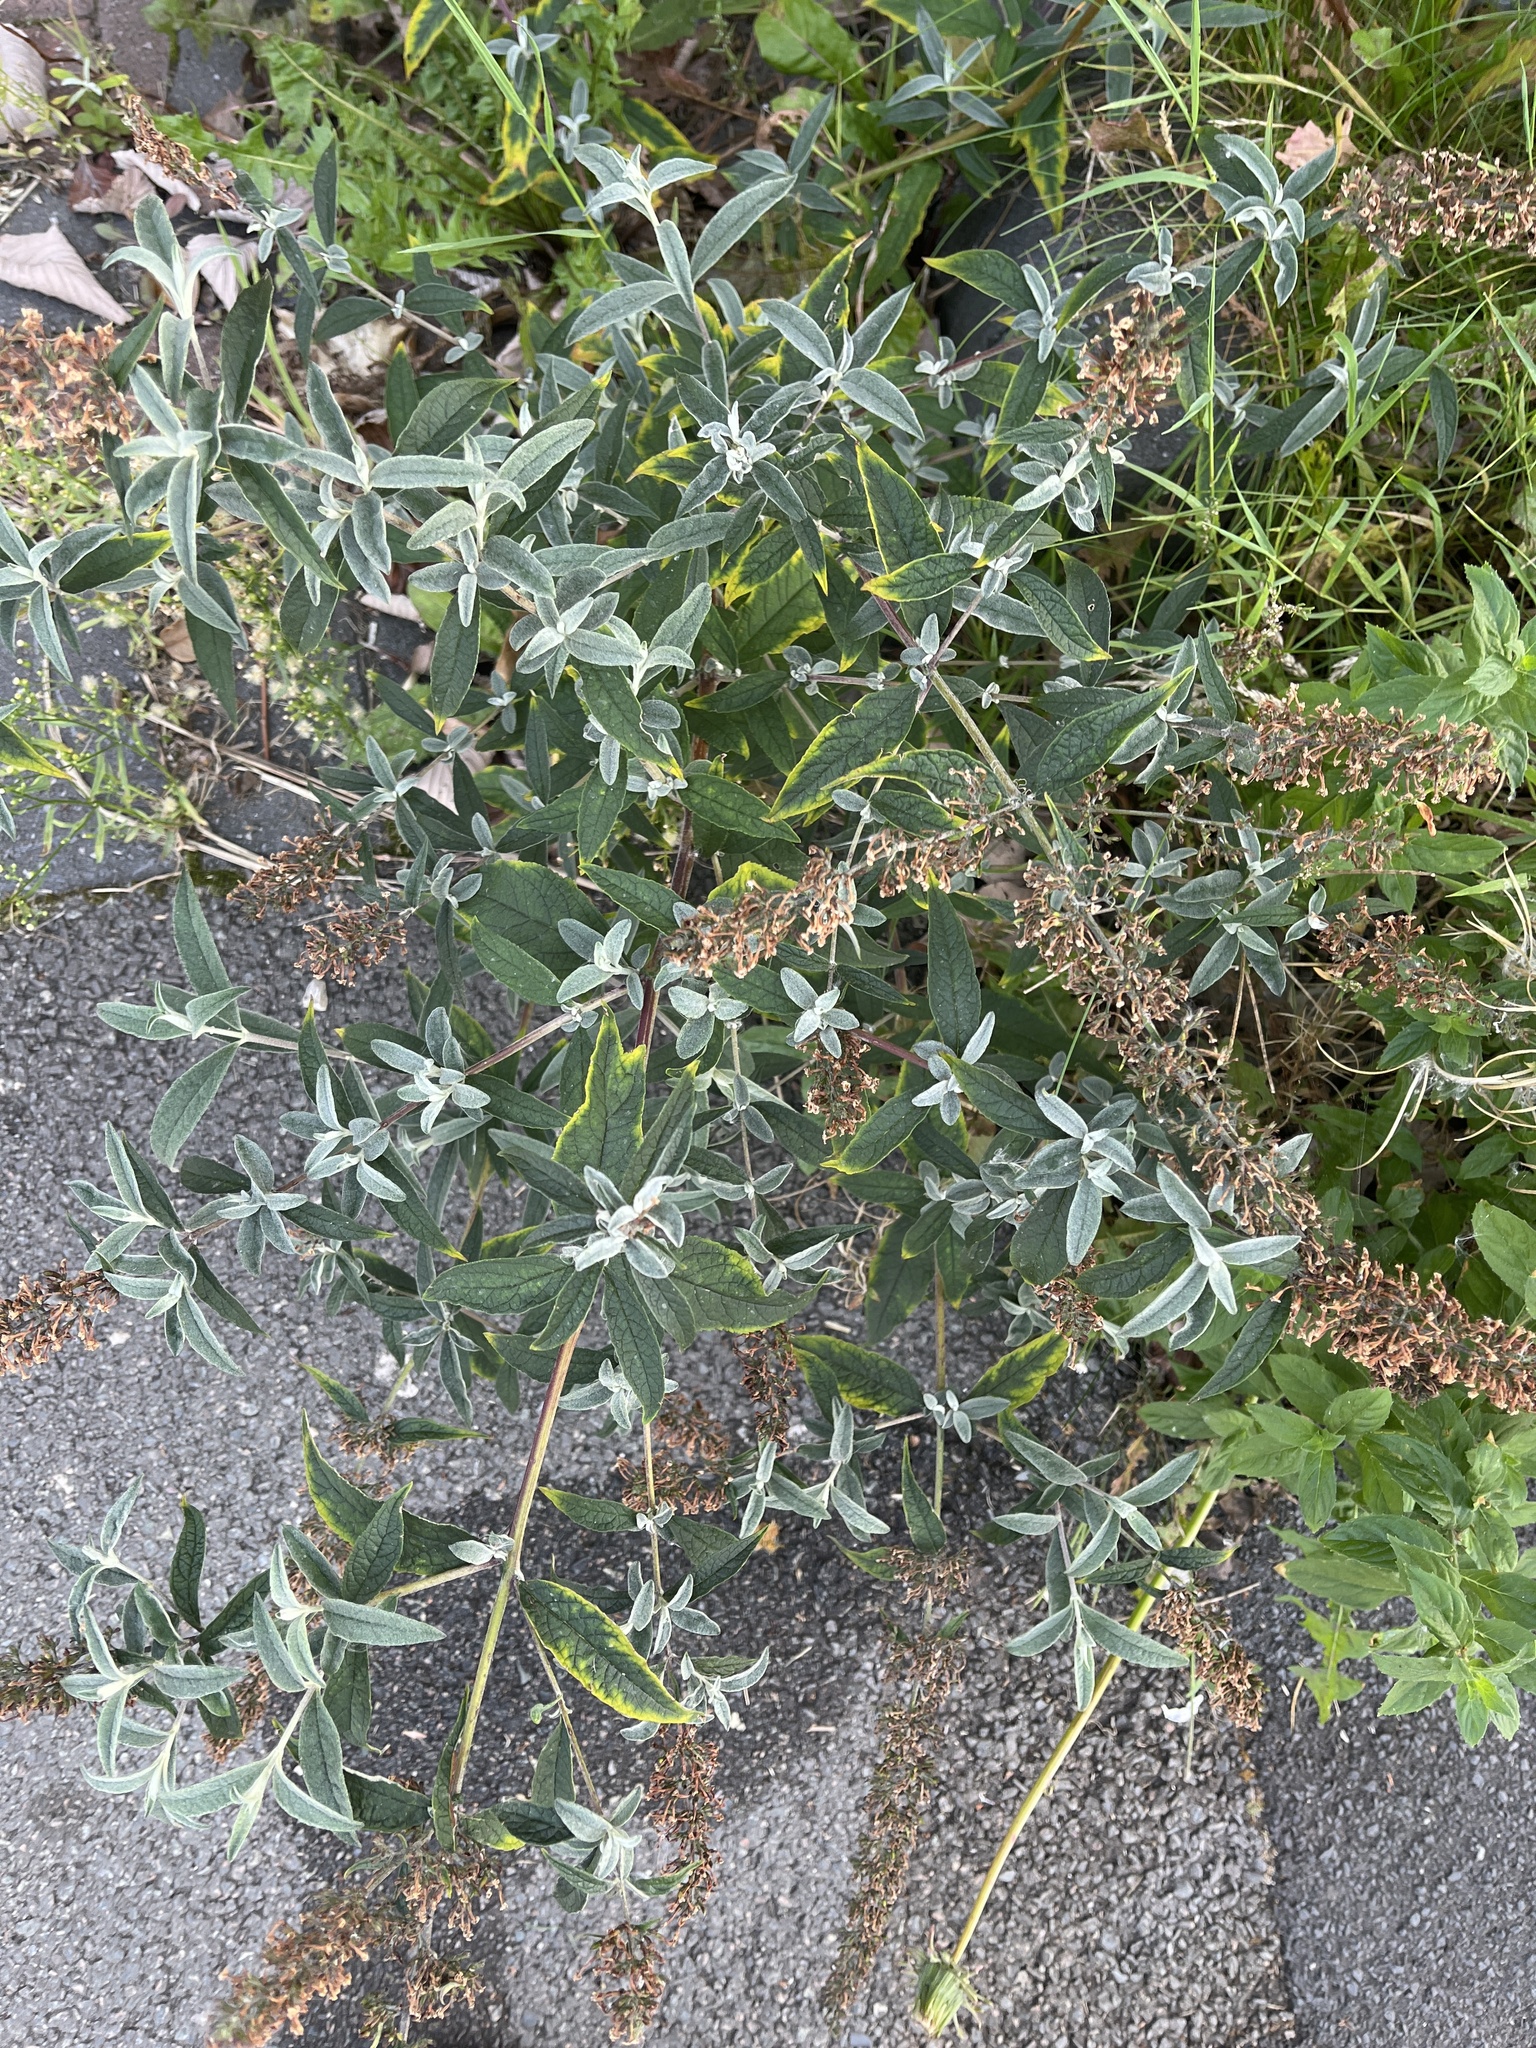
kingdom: Plantae
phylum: Tracheophyta
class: Magnoliopsida
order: Lamiales
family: Scrophulariaceae
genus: Buddleja
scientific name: Buddleja davidii
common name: Butterfly-bush
